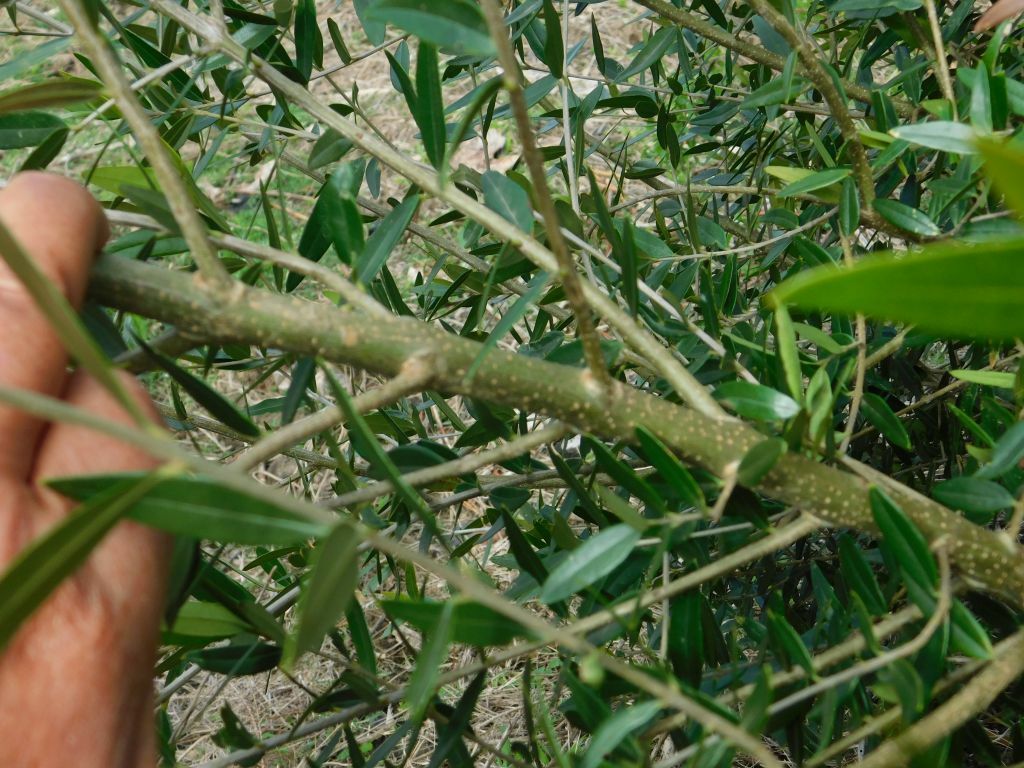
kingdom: Plantae
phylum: Tracheophyta
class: Magnoliopsida
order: Lamiales
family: Oleaceae
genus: Olea
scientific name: Olea europaea
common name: Olive
